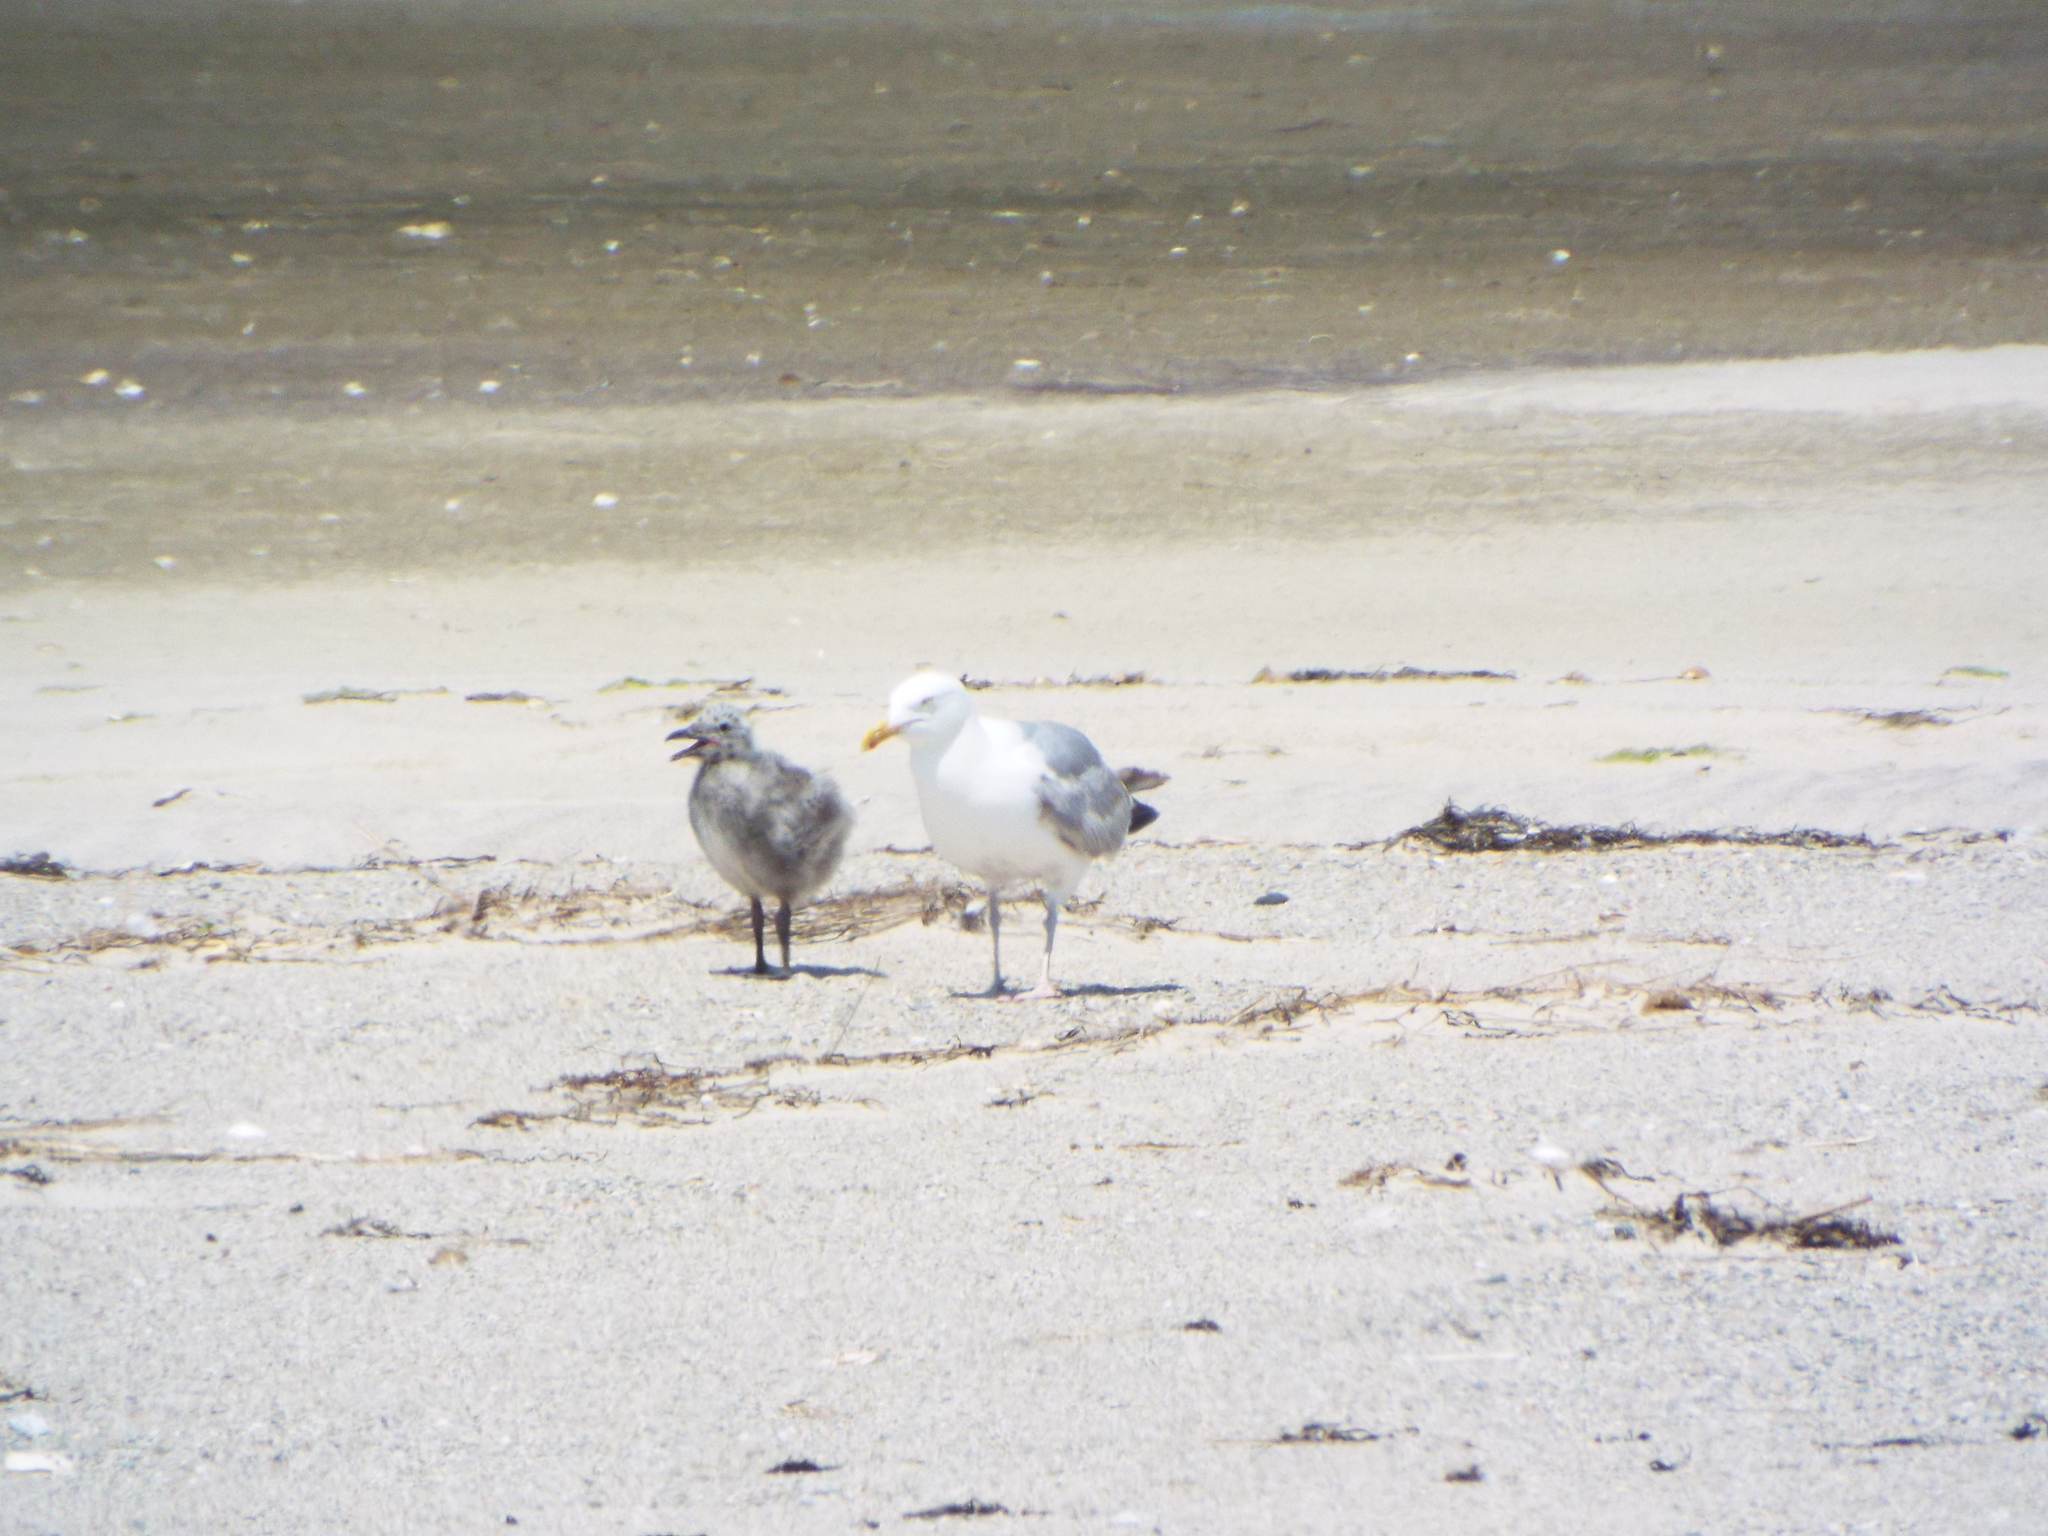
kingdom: Animalia
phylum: Chordata
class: Aves
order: Charadriiformes
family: Laridae
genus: Larus
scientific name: Larus argentatus
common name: Herring gull
